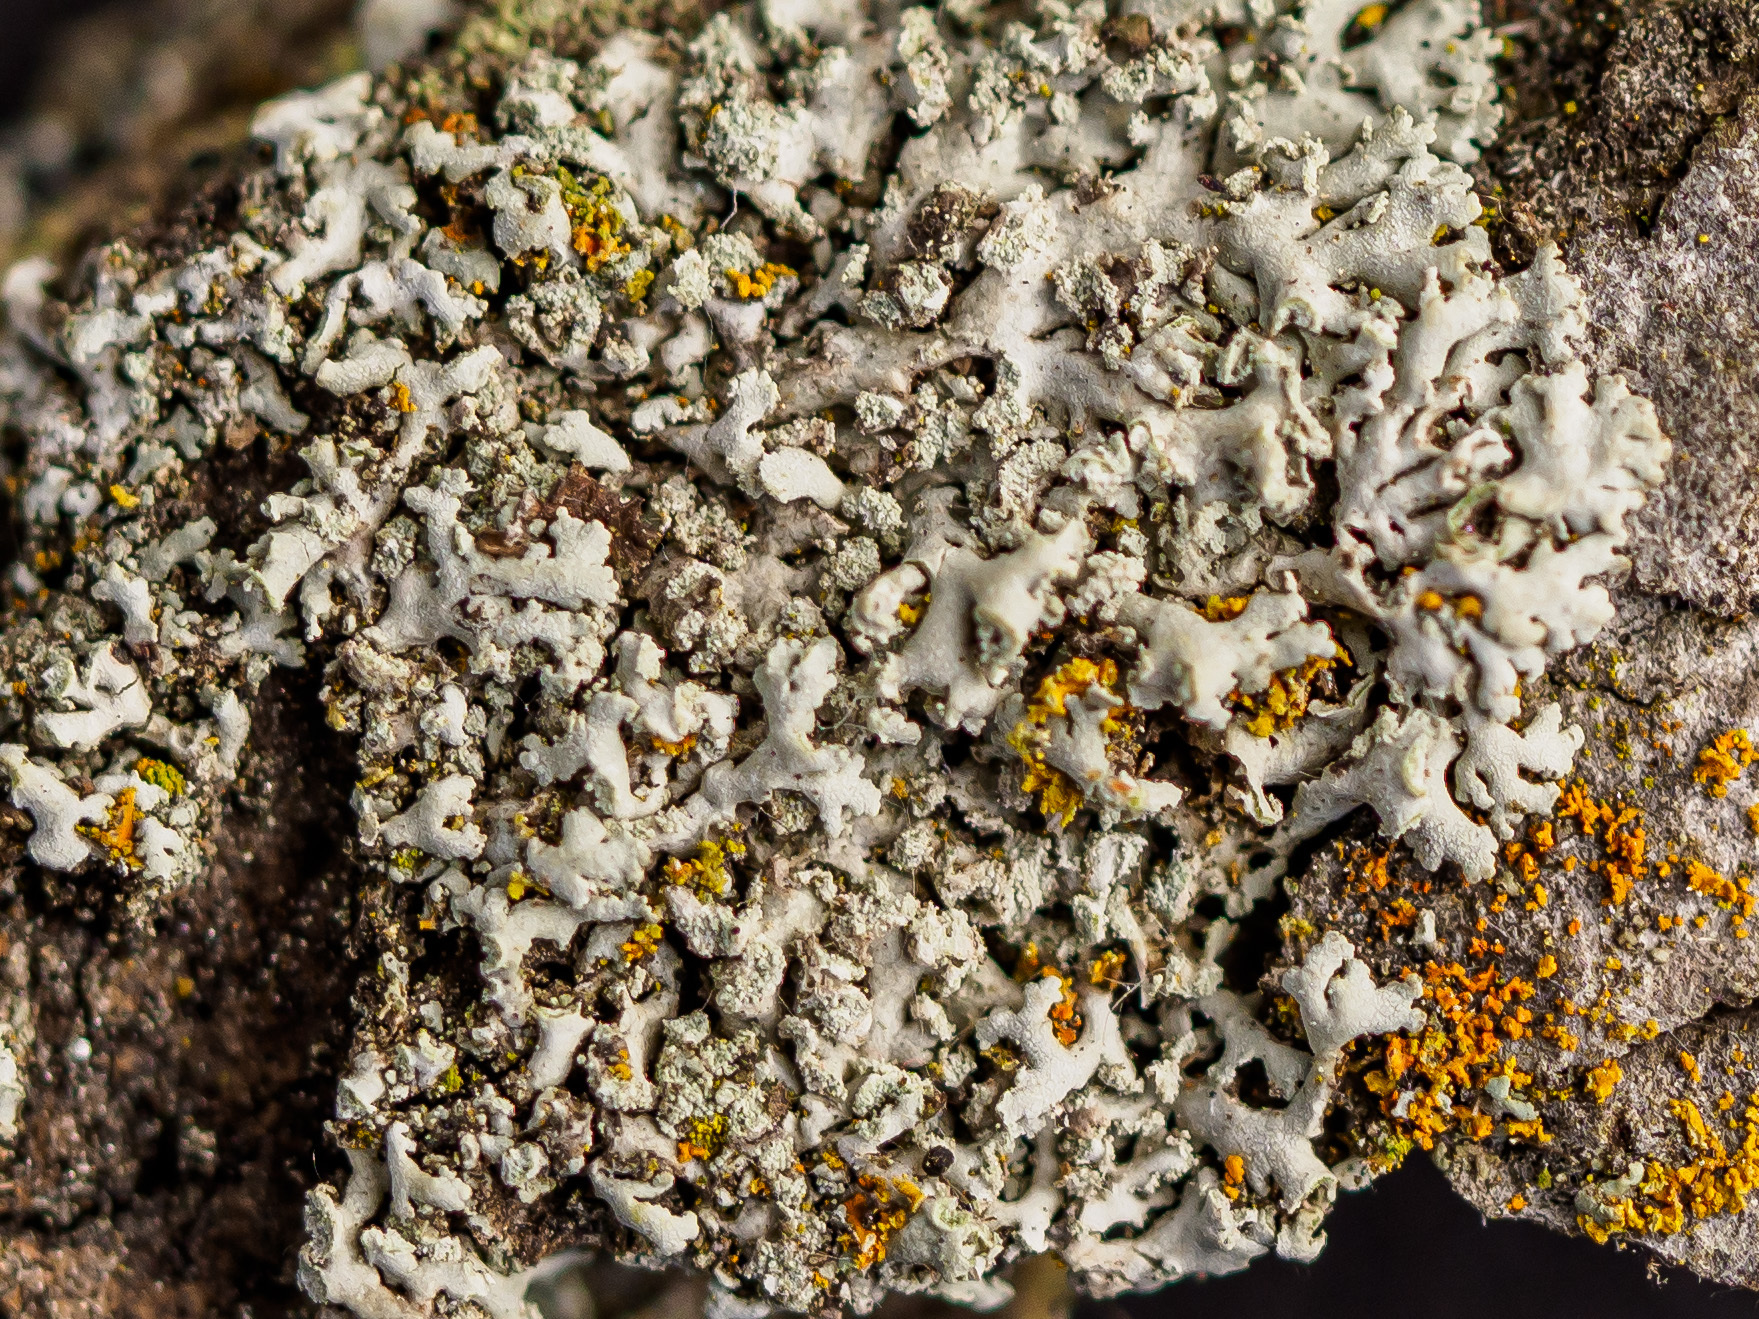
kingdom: Fungi
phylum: Ascomycota
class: Lecanoromycetes
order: Lecanorales
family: Parmeliaceae
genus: Imshaugia
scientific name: Imshaugia aleurites
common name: Salted starburst lichen
